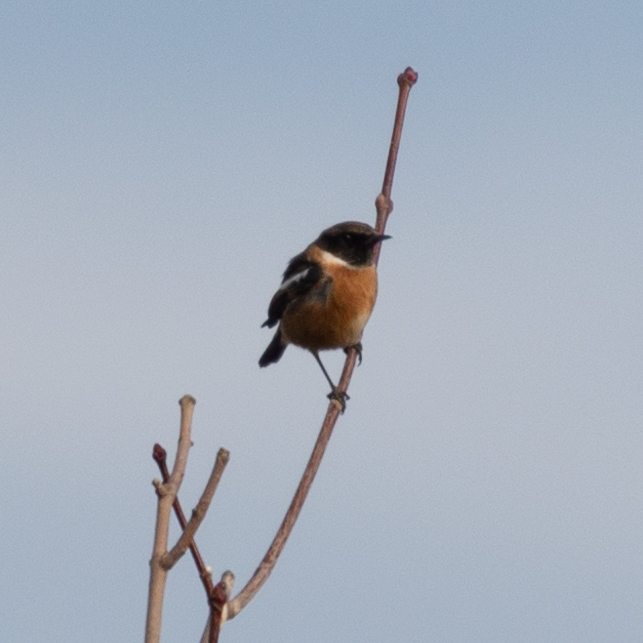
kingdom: Animalia
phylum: Chordata
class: Aves
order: Passeriformes
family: Muscicapidae
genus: Saxicola
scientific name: Saxicola rubicola
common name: European stonechat
